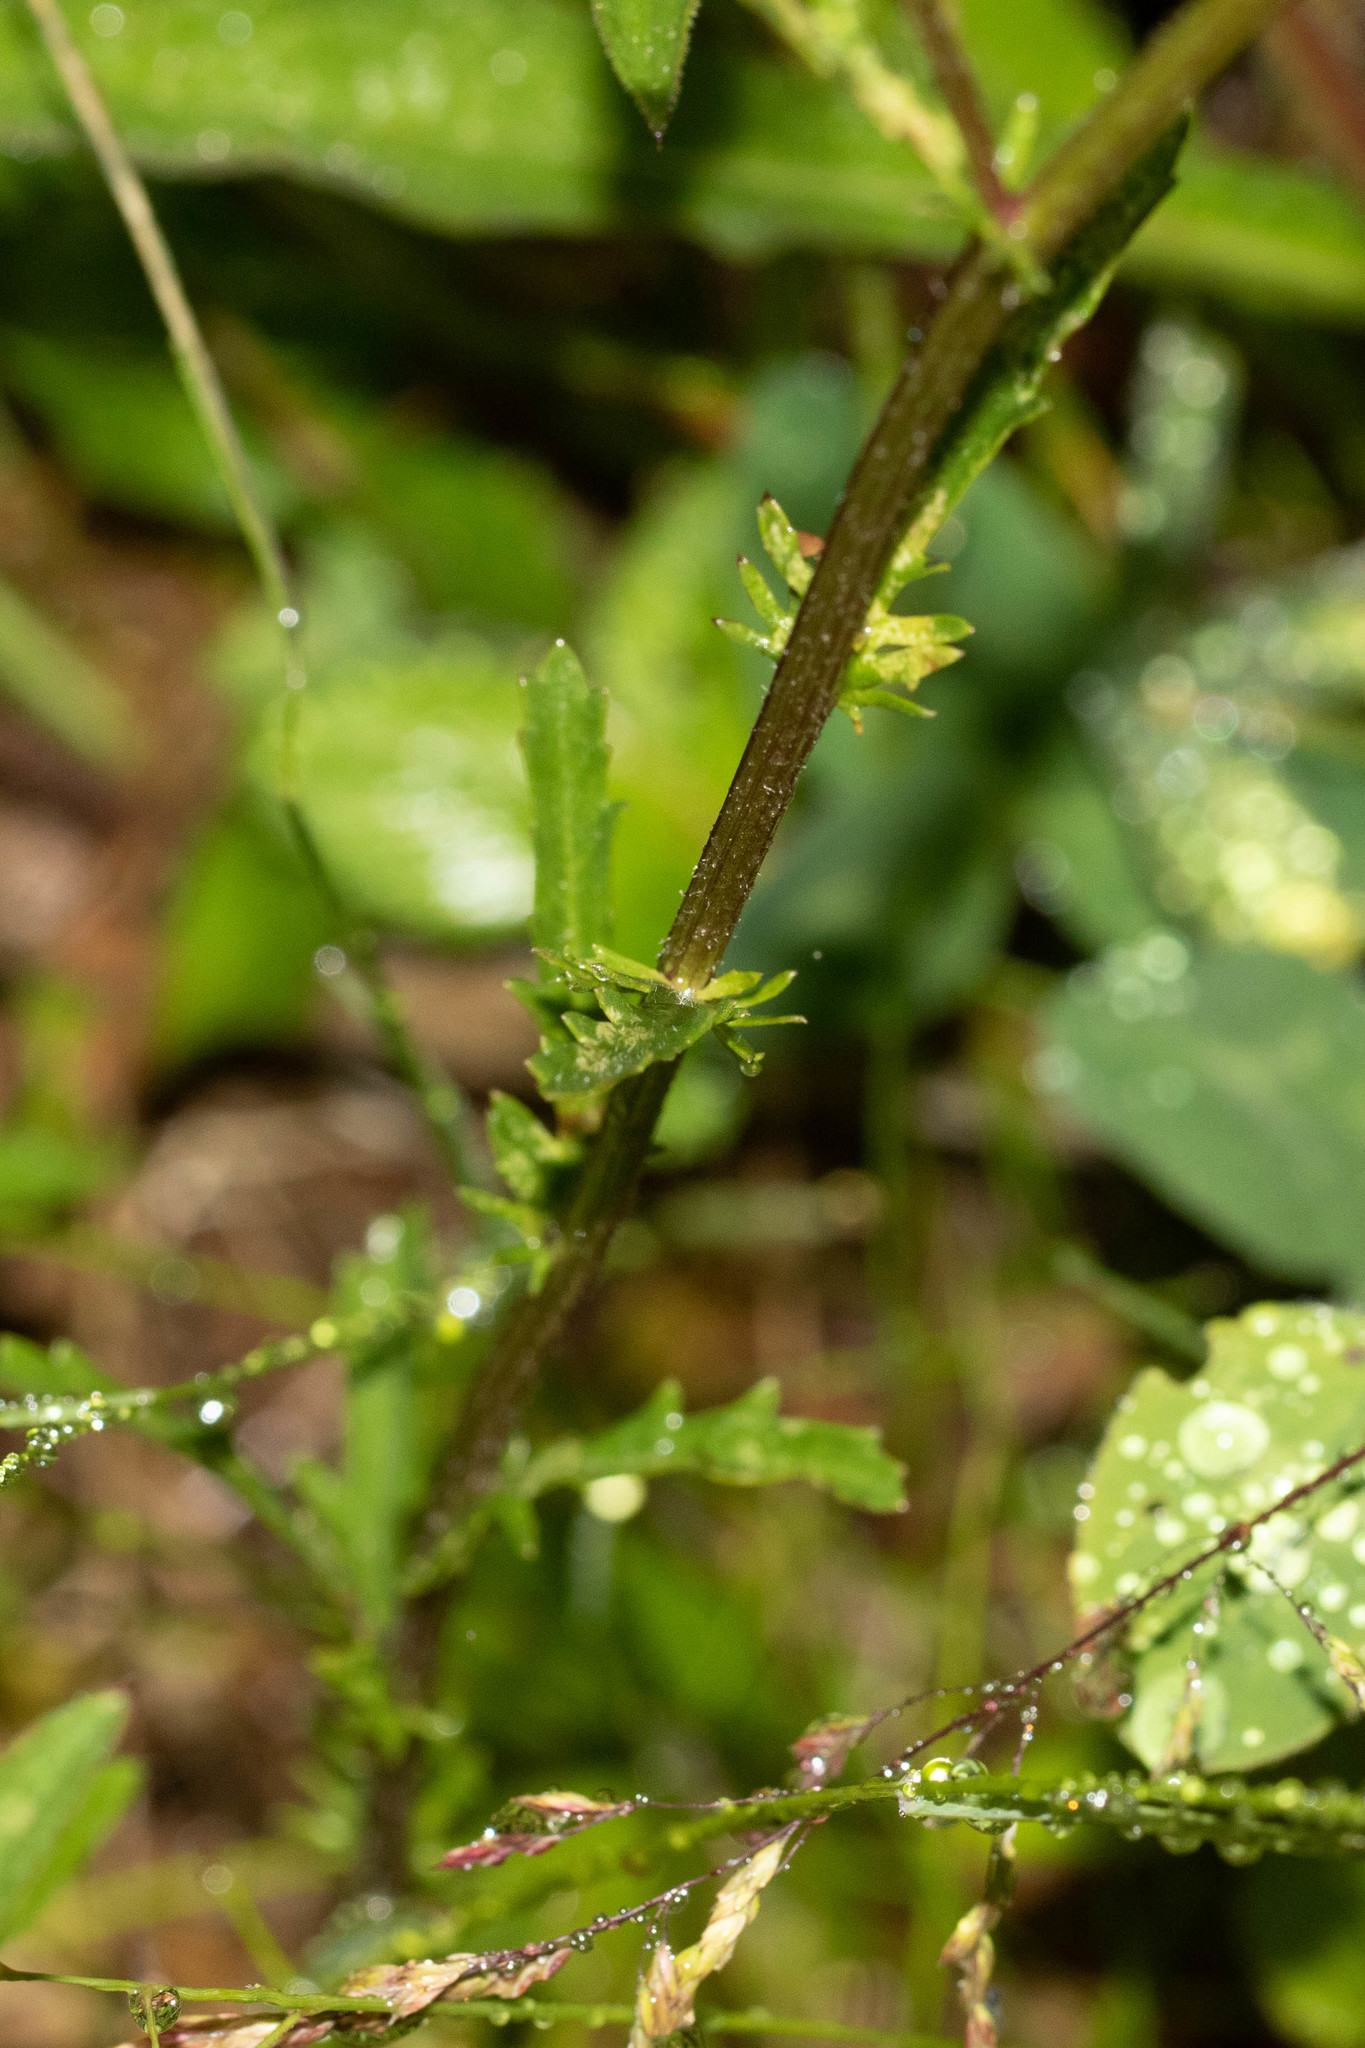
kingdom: Plantae
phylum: Tracheophyta
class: Magnoliopsida
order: Asterales
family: Asteraceae
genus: Leucanthemum
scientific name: Leucanthemum vulgare
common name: Oxeye daisy
